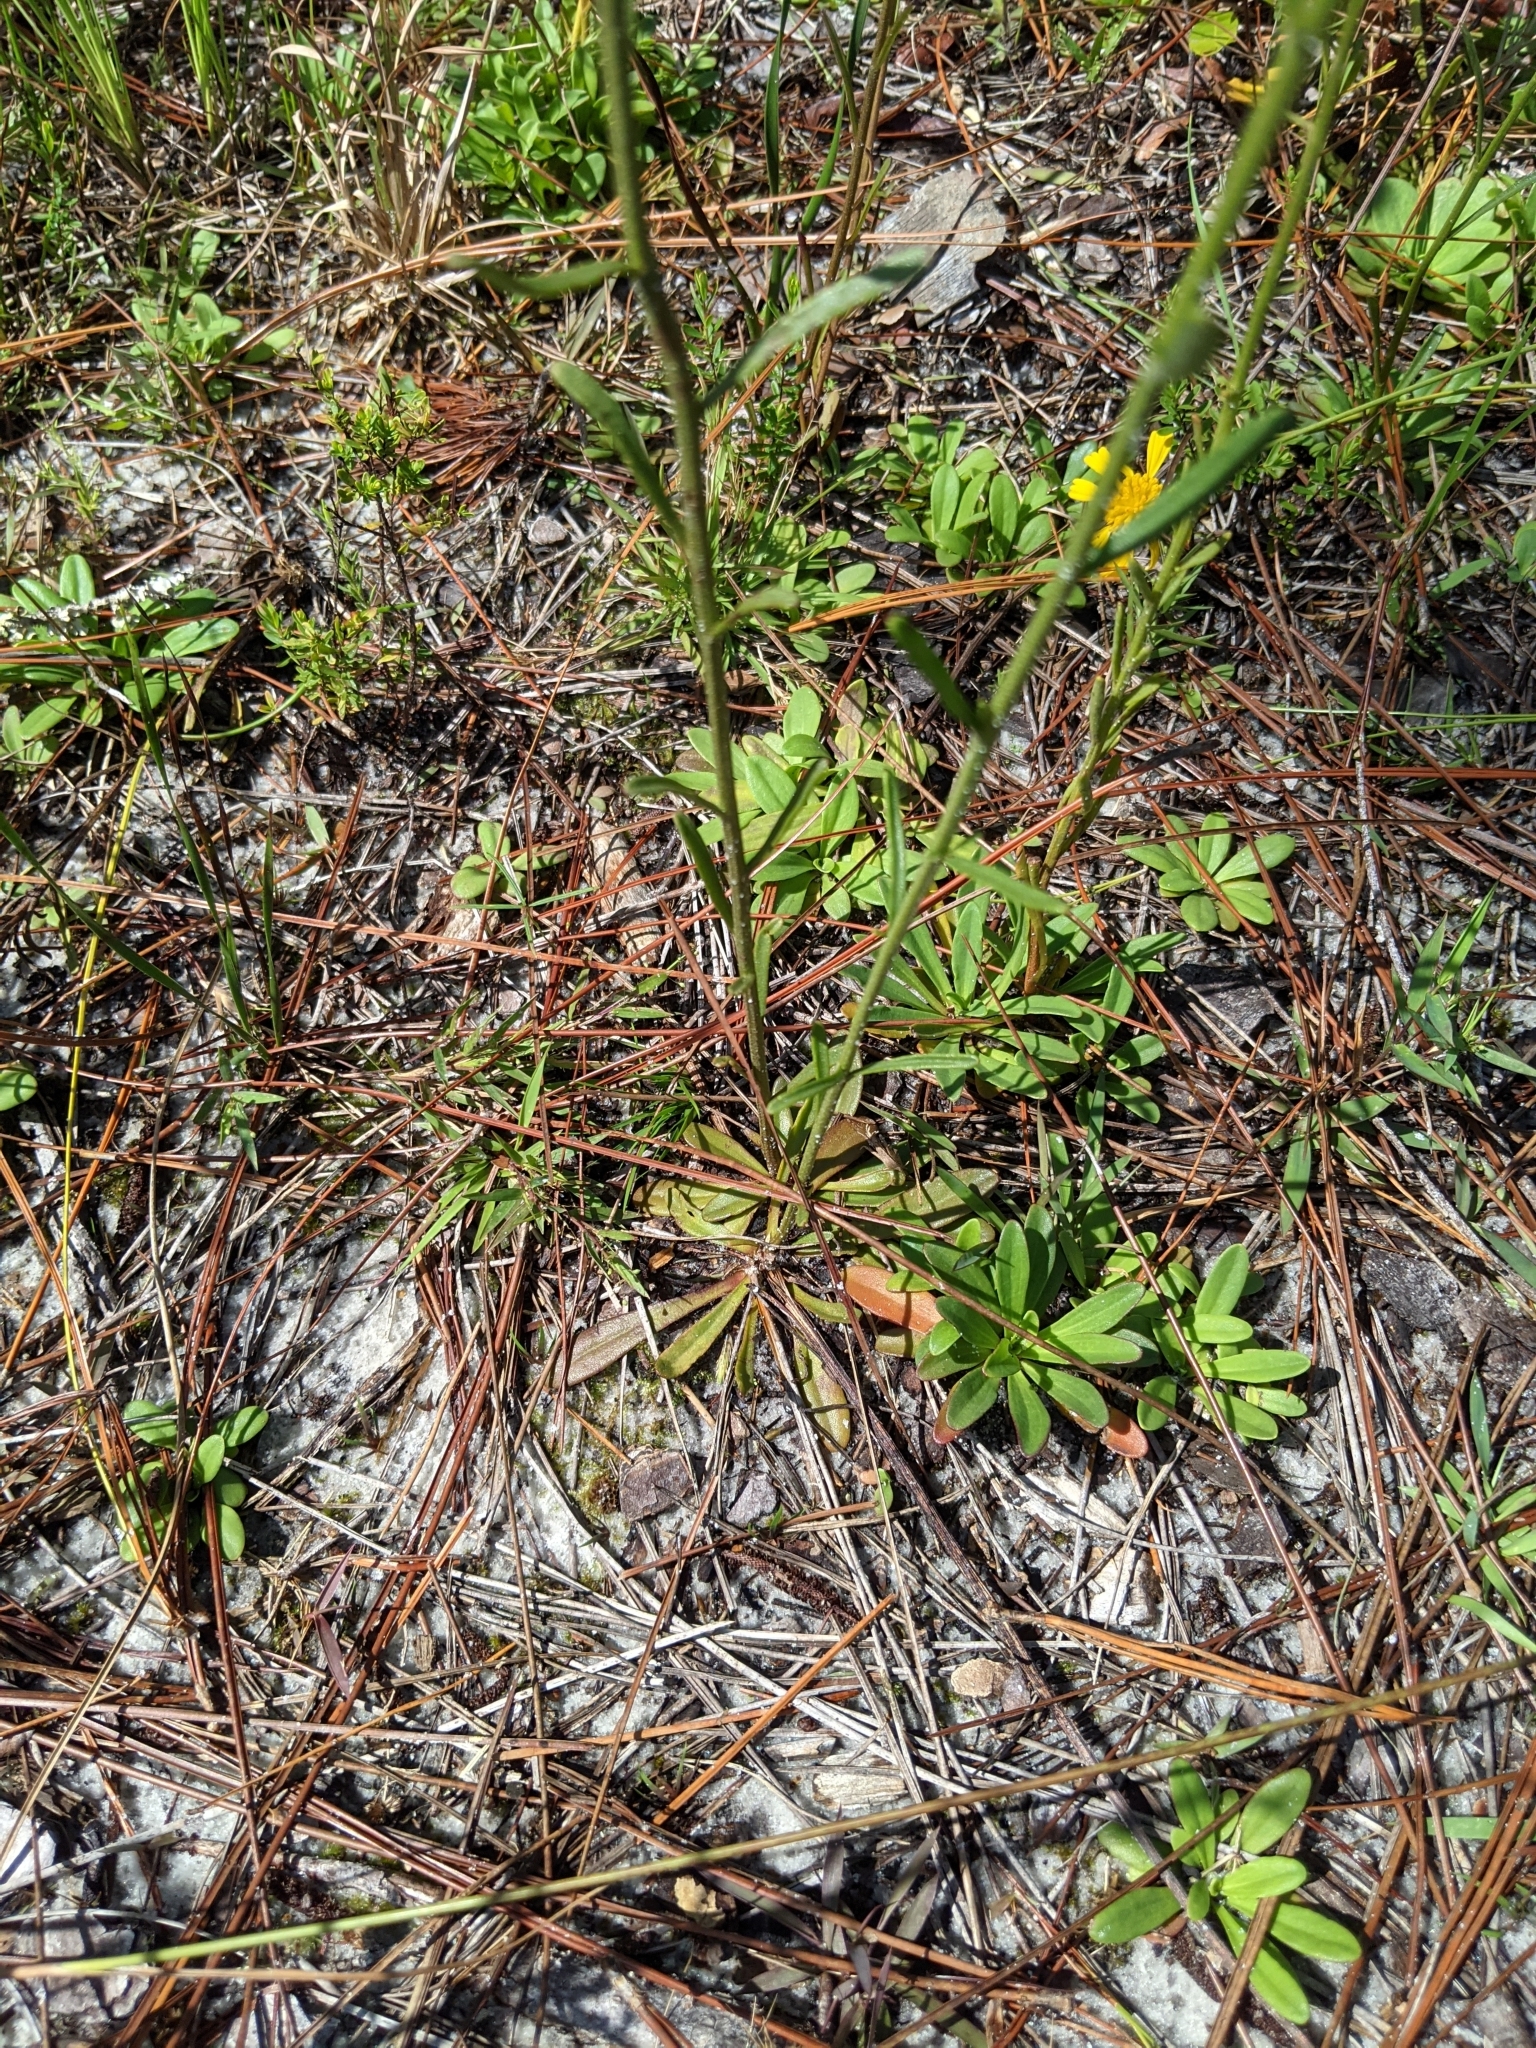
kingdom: Plantae
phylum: Tracheophyta
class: Magnoliopsida
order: Asterales
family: Asteraceae
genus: Balduina
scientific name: Balduina uniflora
